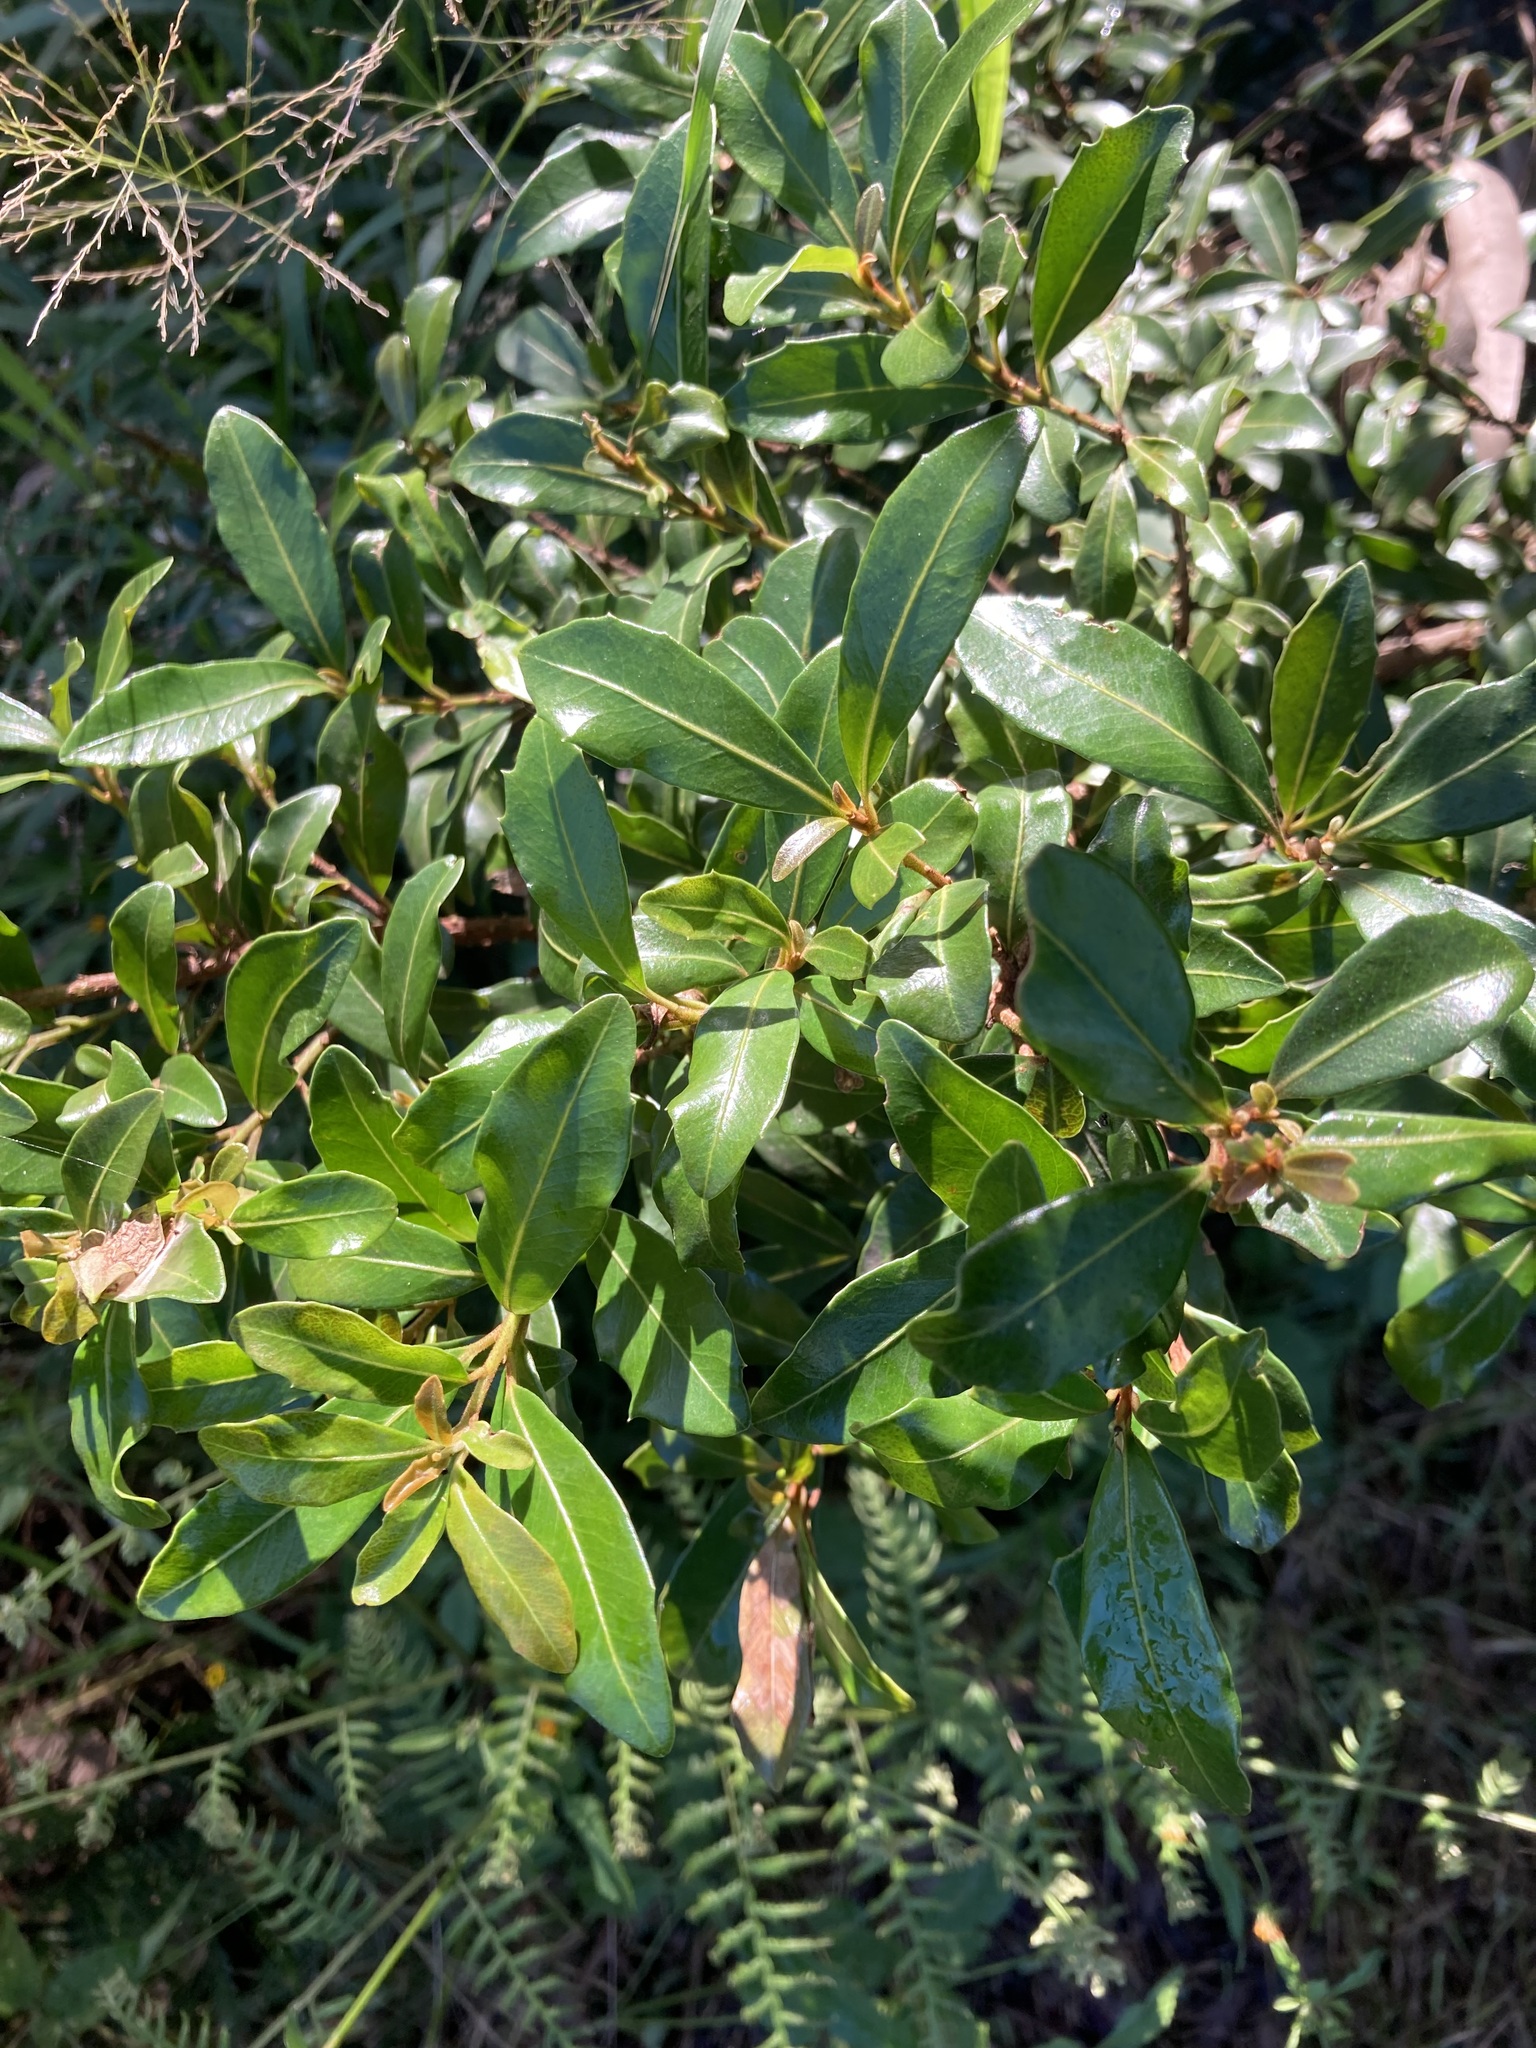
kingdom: Plantae
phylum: Tracheophyta
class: Magnoliopsida
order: Ericales
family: Primulaceae
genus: Myrsine
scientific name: Myrsine variabilis
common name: Brush muttonwood
